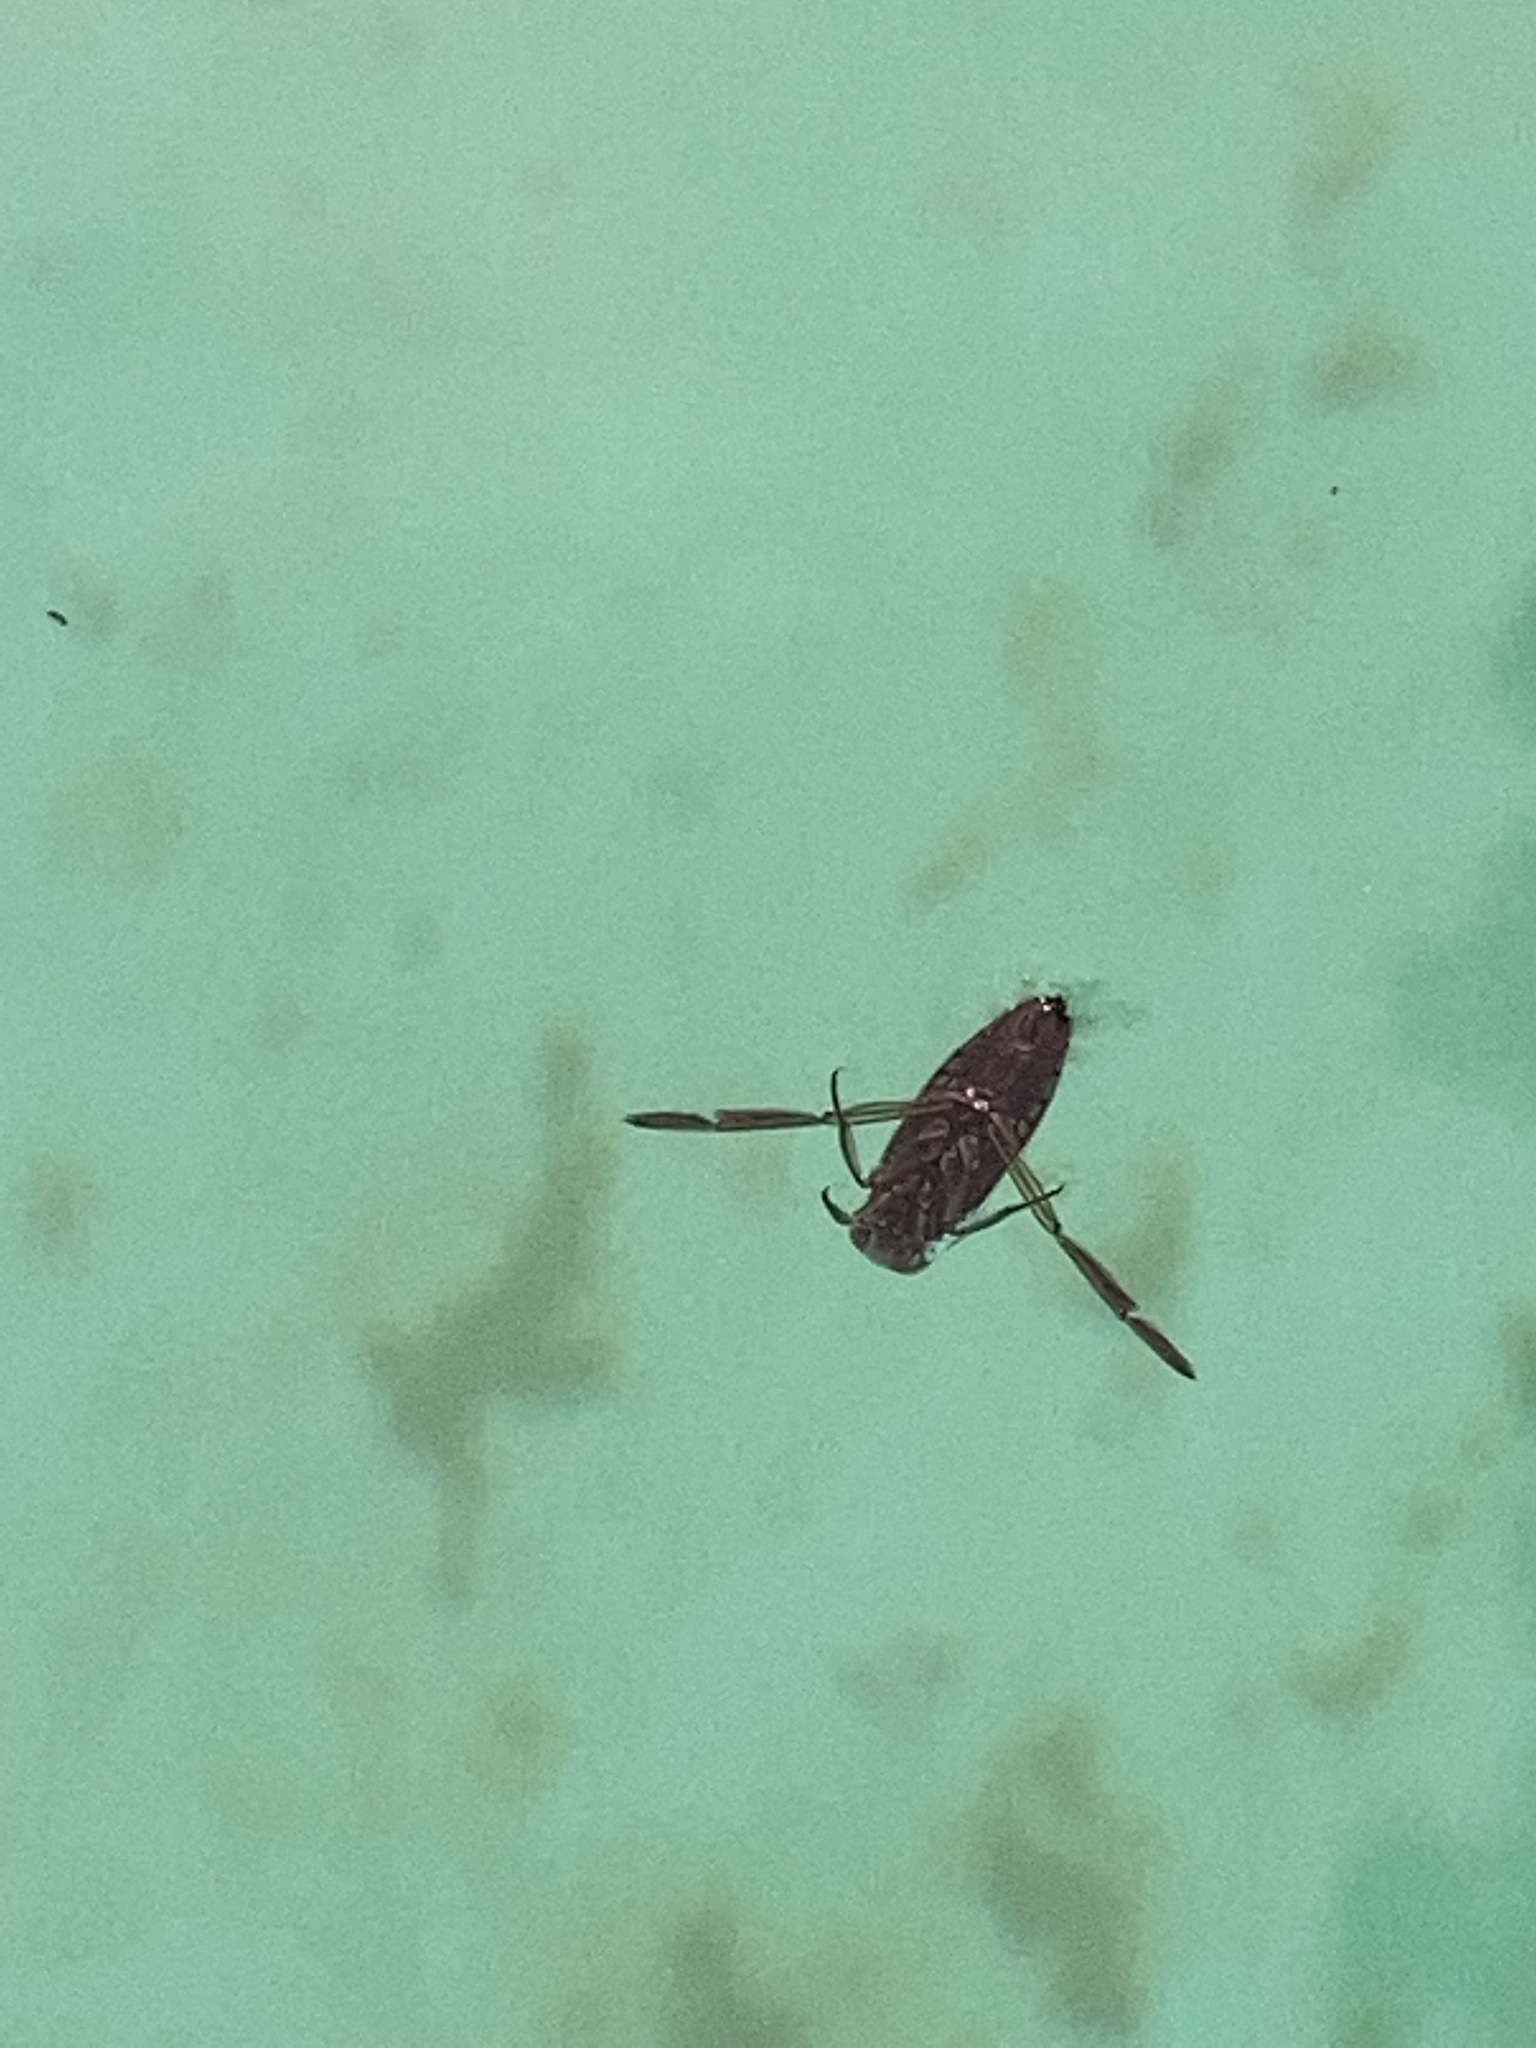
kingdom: Animalia
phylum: Arthropoda
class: Insecta
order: Hemiptera
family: Notonectidae
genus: Notonecta
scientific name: Notonecta
